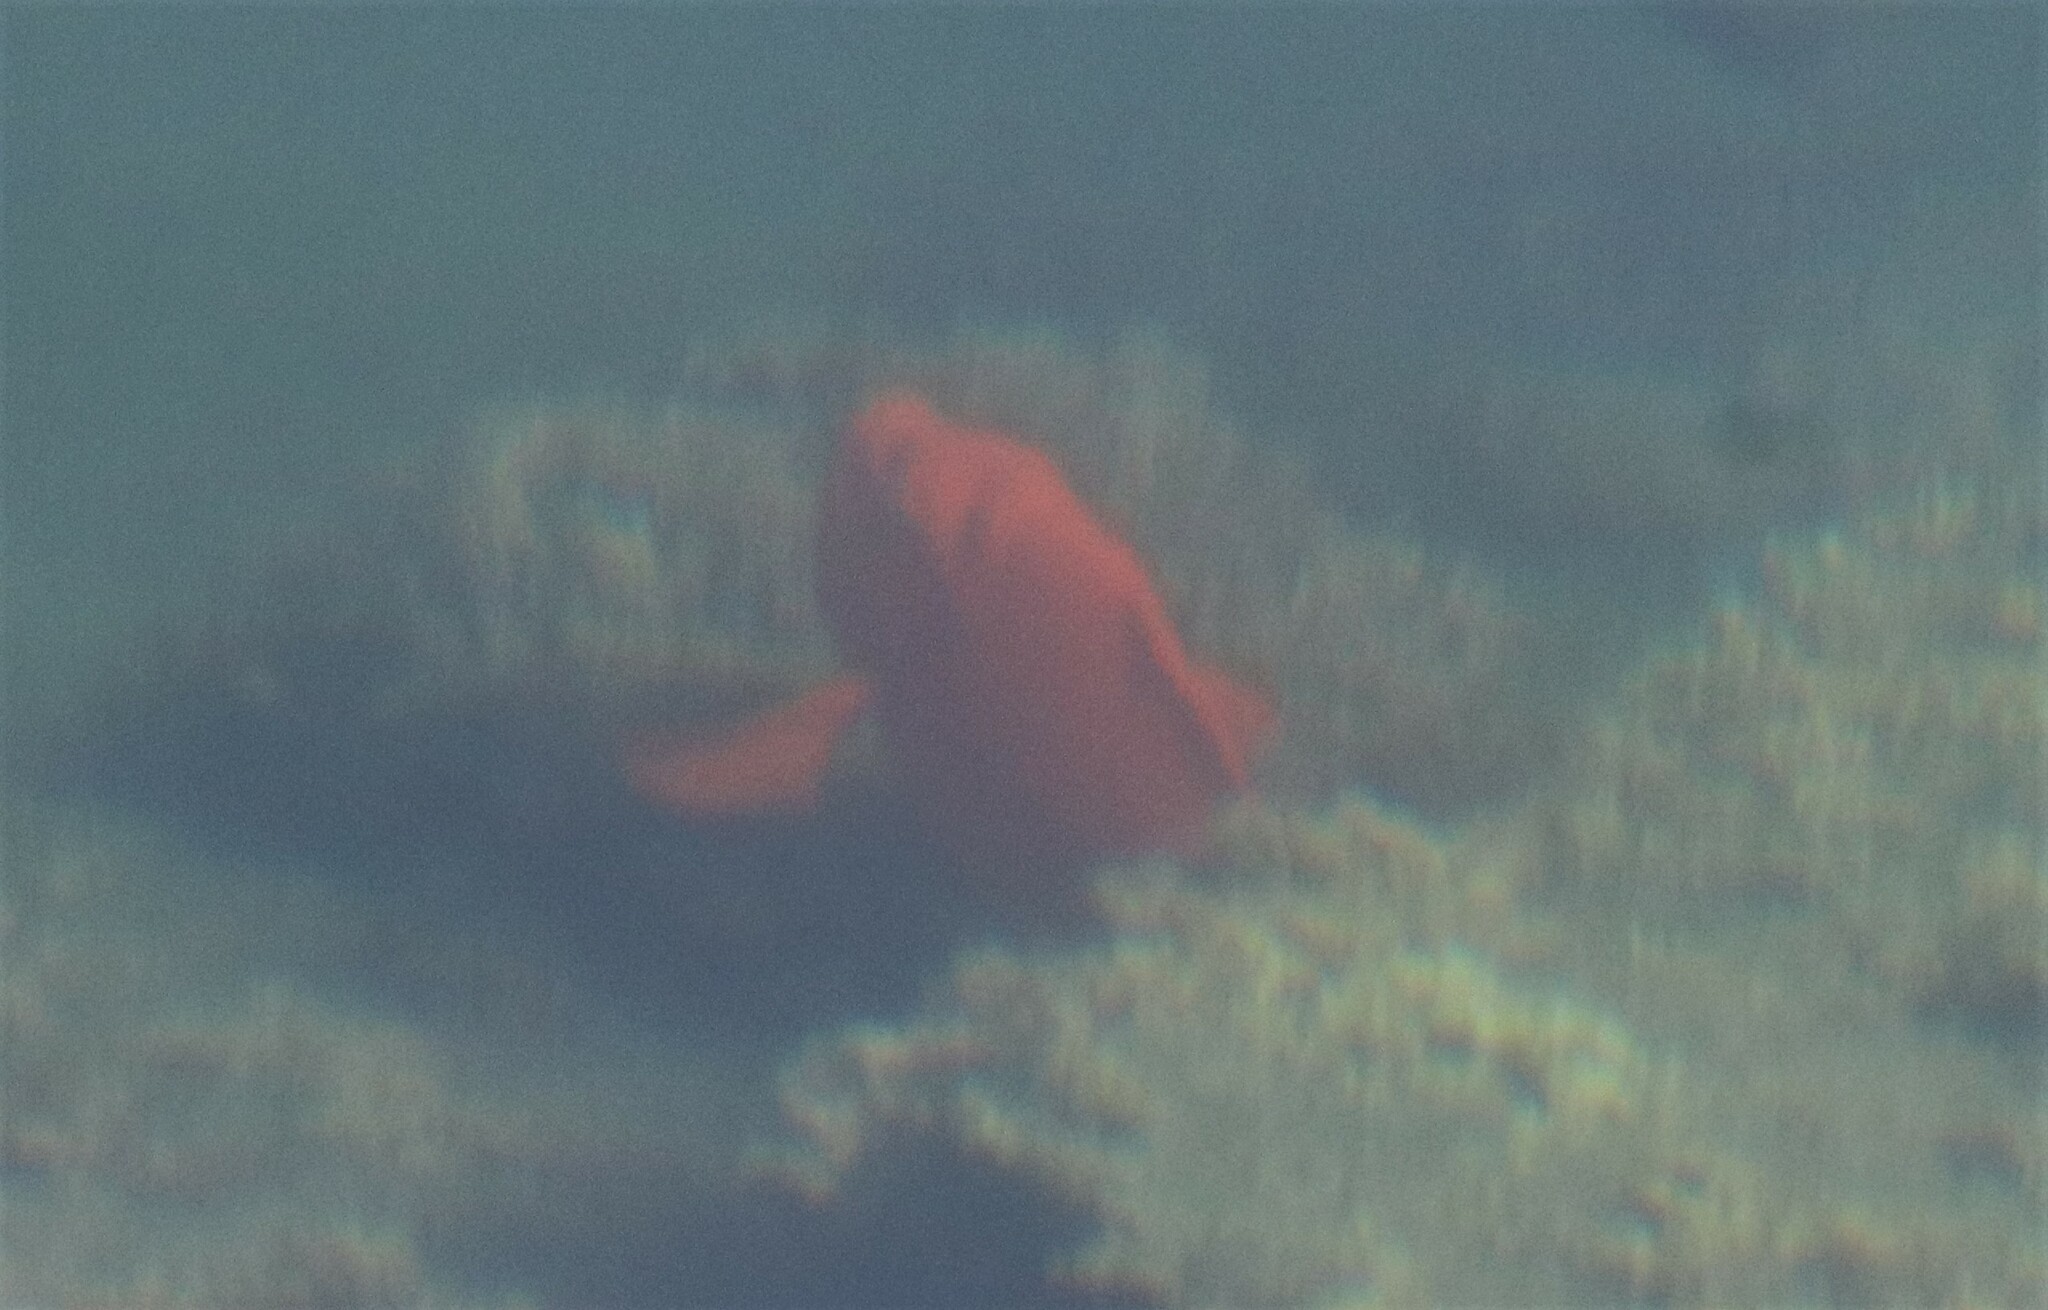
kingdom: Animalia
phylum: Chordata
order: Perciformes
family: Pomacentridae
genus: Hypsypops
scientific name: Hypsypops rubicundus
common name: Garibaldi
